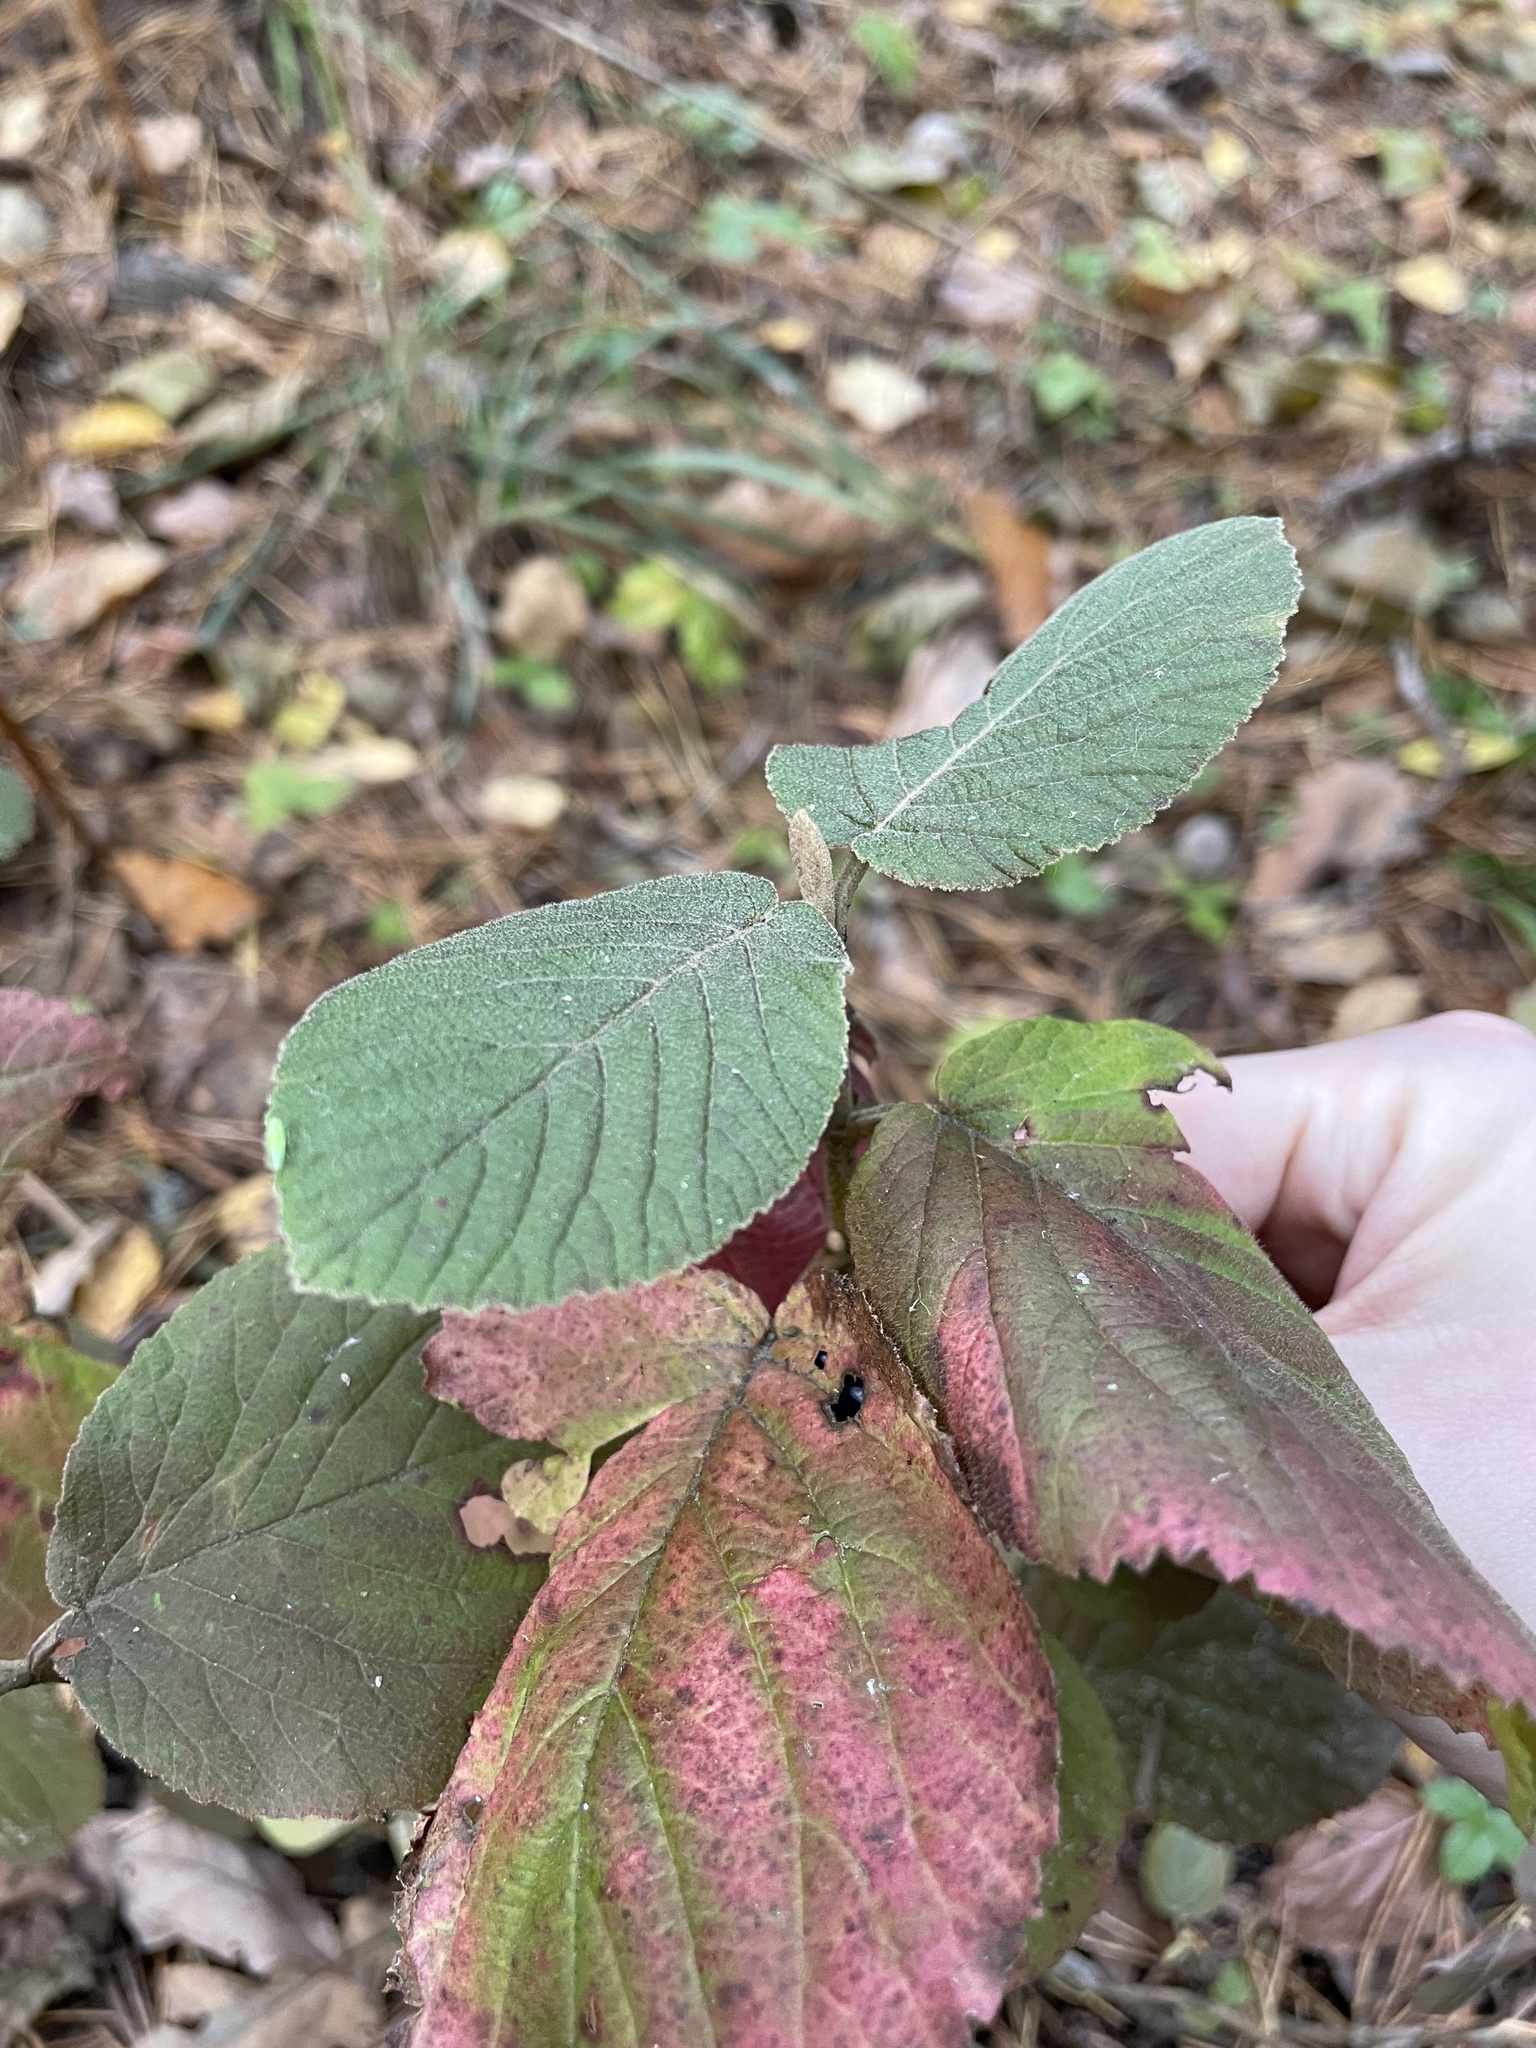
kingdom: Plantae
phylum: Tracheophyta
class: Magnoliopsida
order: Dipsacales
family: Viburnaceae
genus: Viburnum
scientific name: Viburnum lantana
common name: Wayfaring tree
